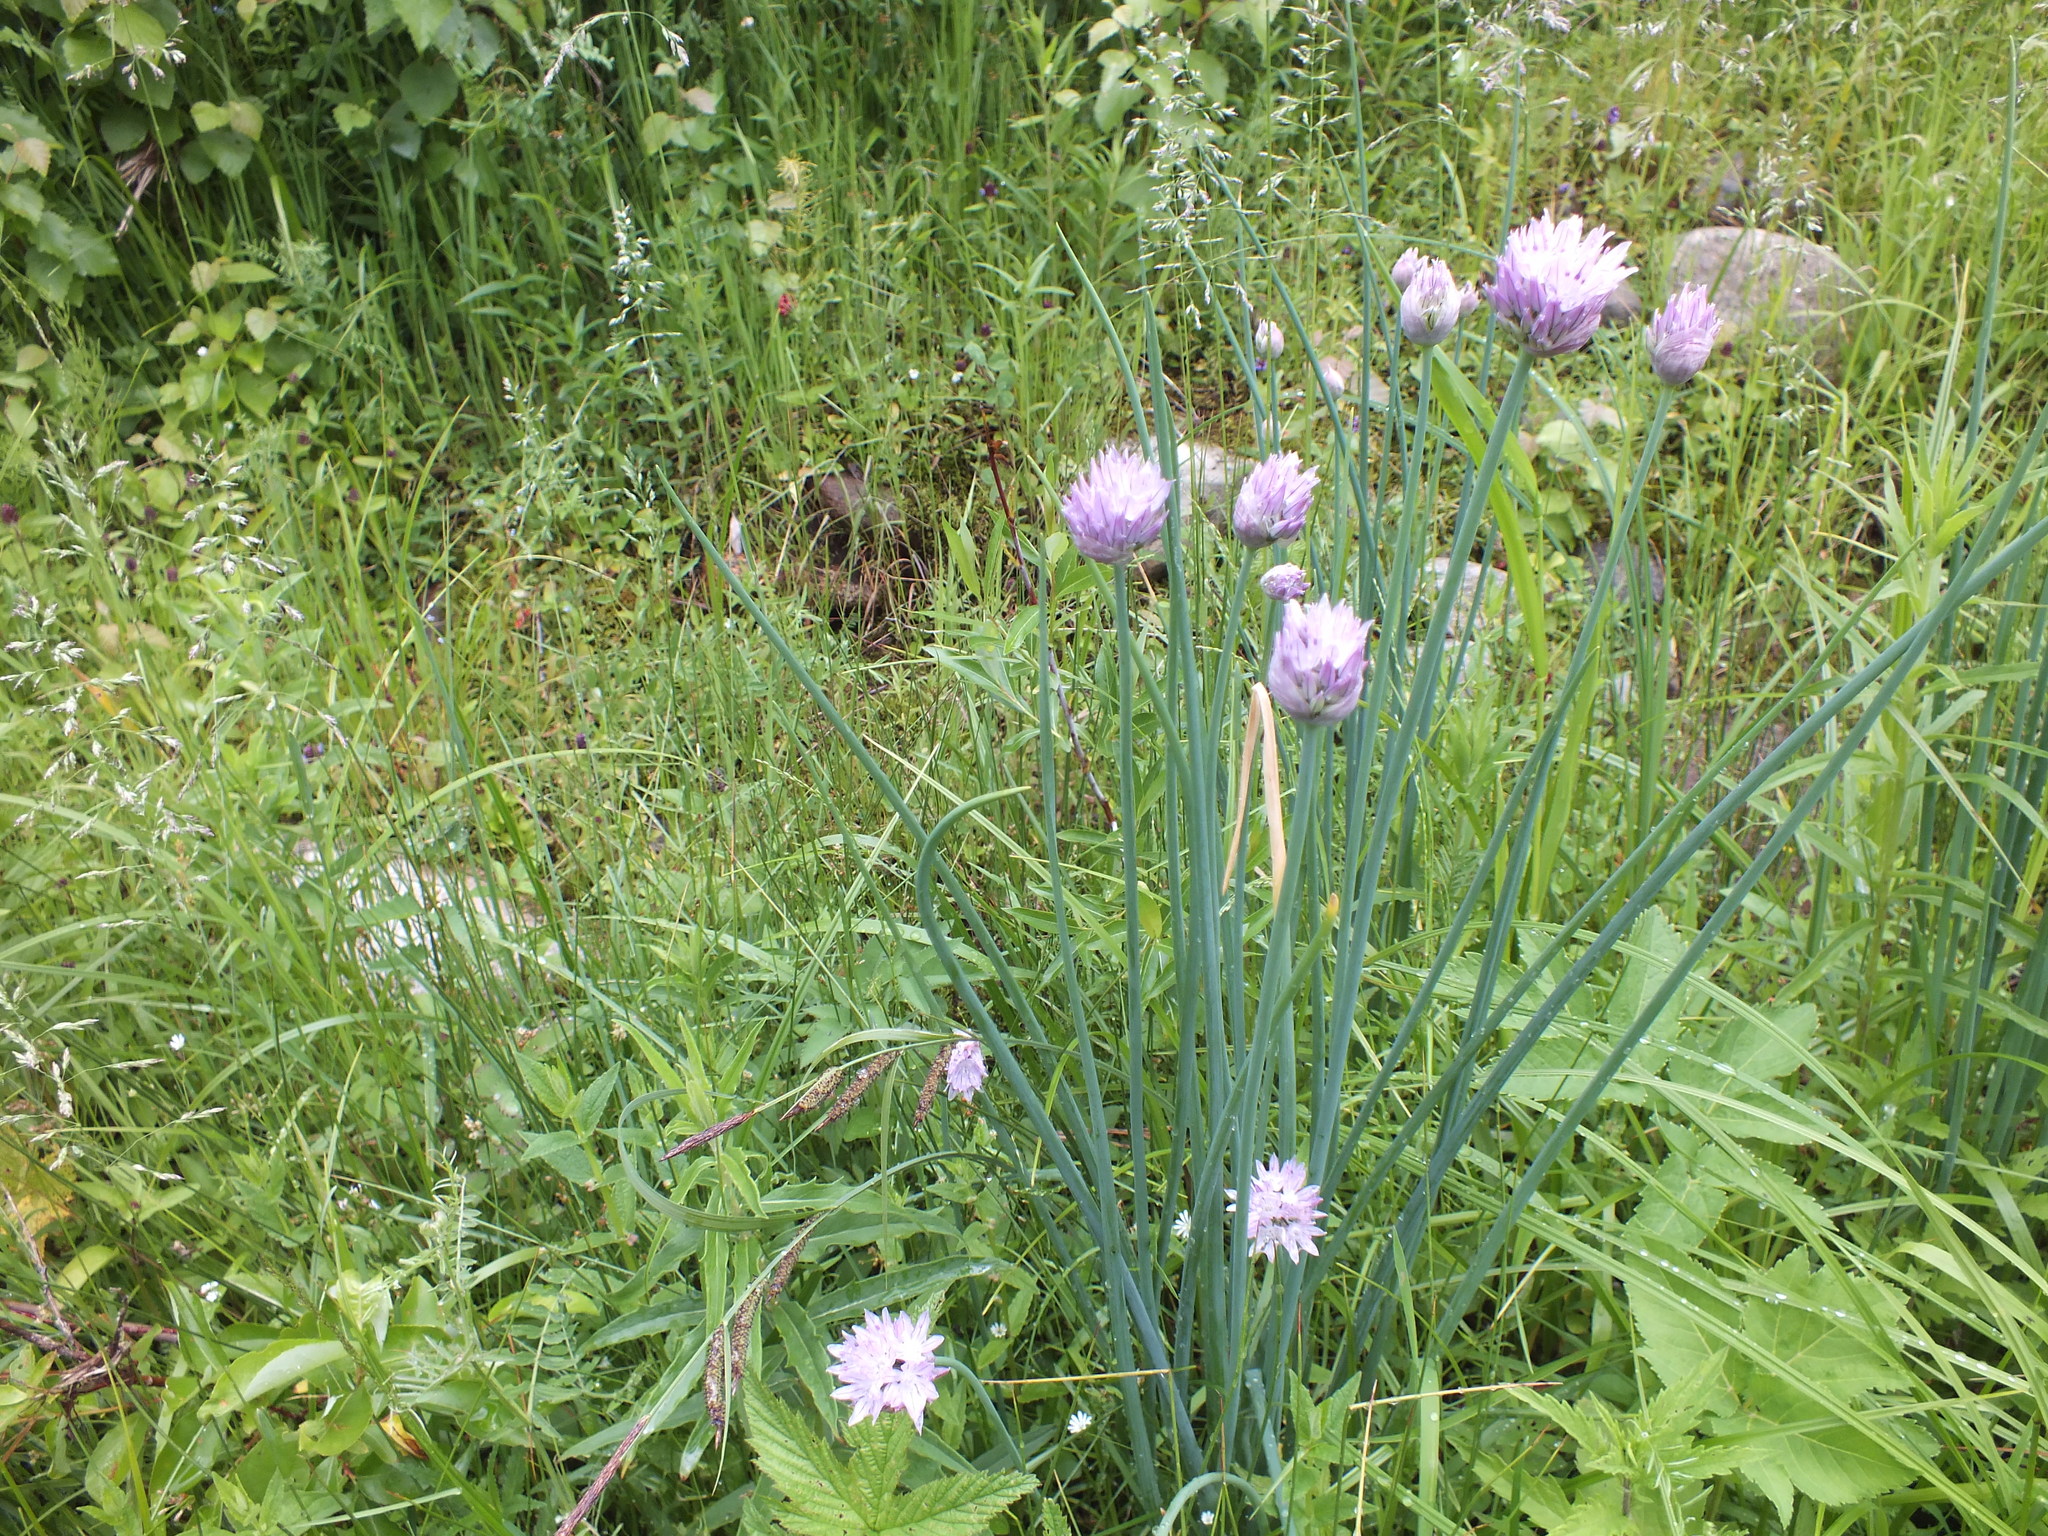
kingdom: Plantae
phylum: Tracheophyta
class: Liliopsida
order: Asparagales
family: Amaryllidaceae
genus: Allium
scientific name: Allium schoenoprasum
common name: Chives
